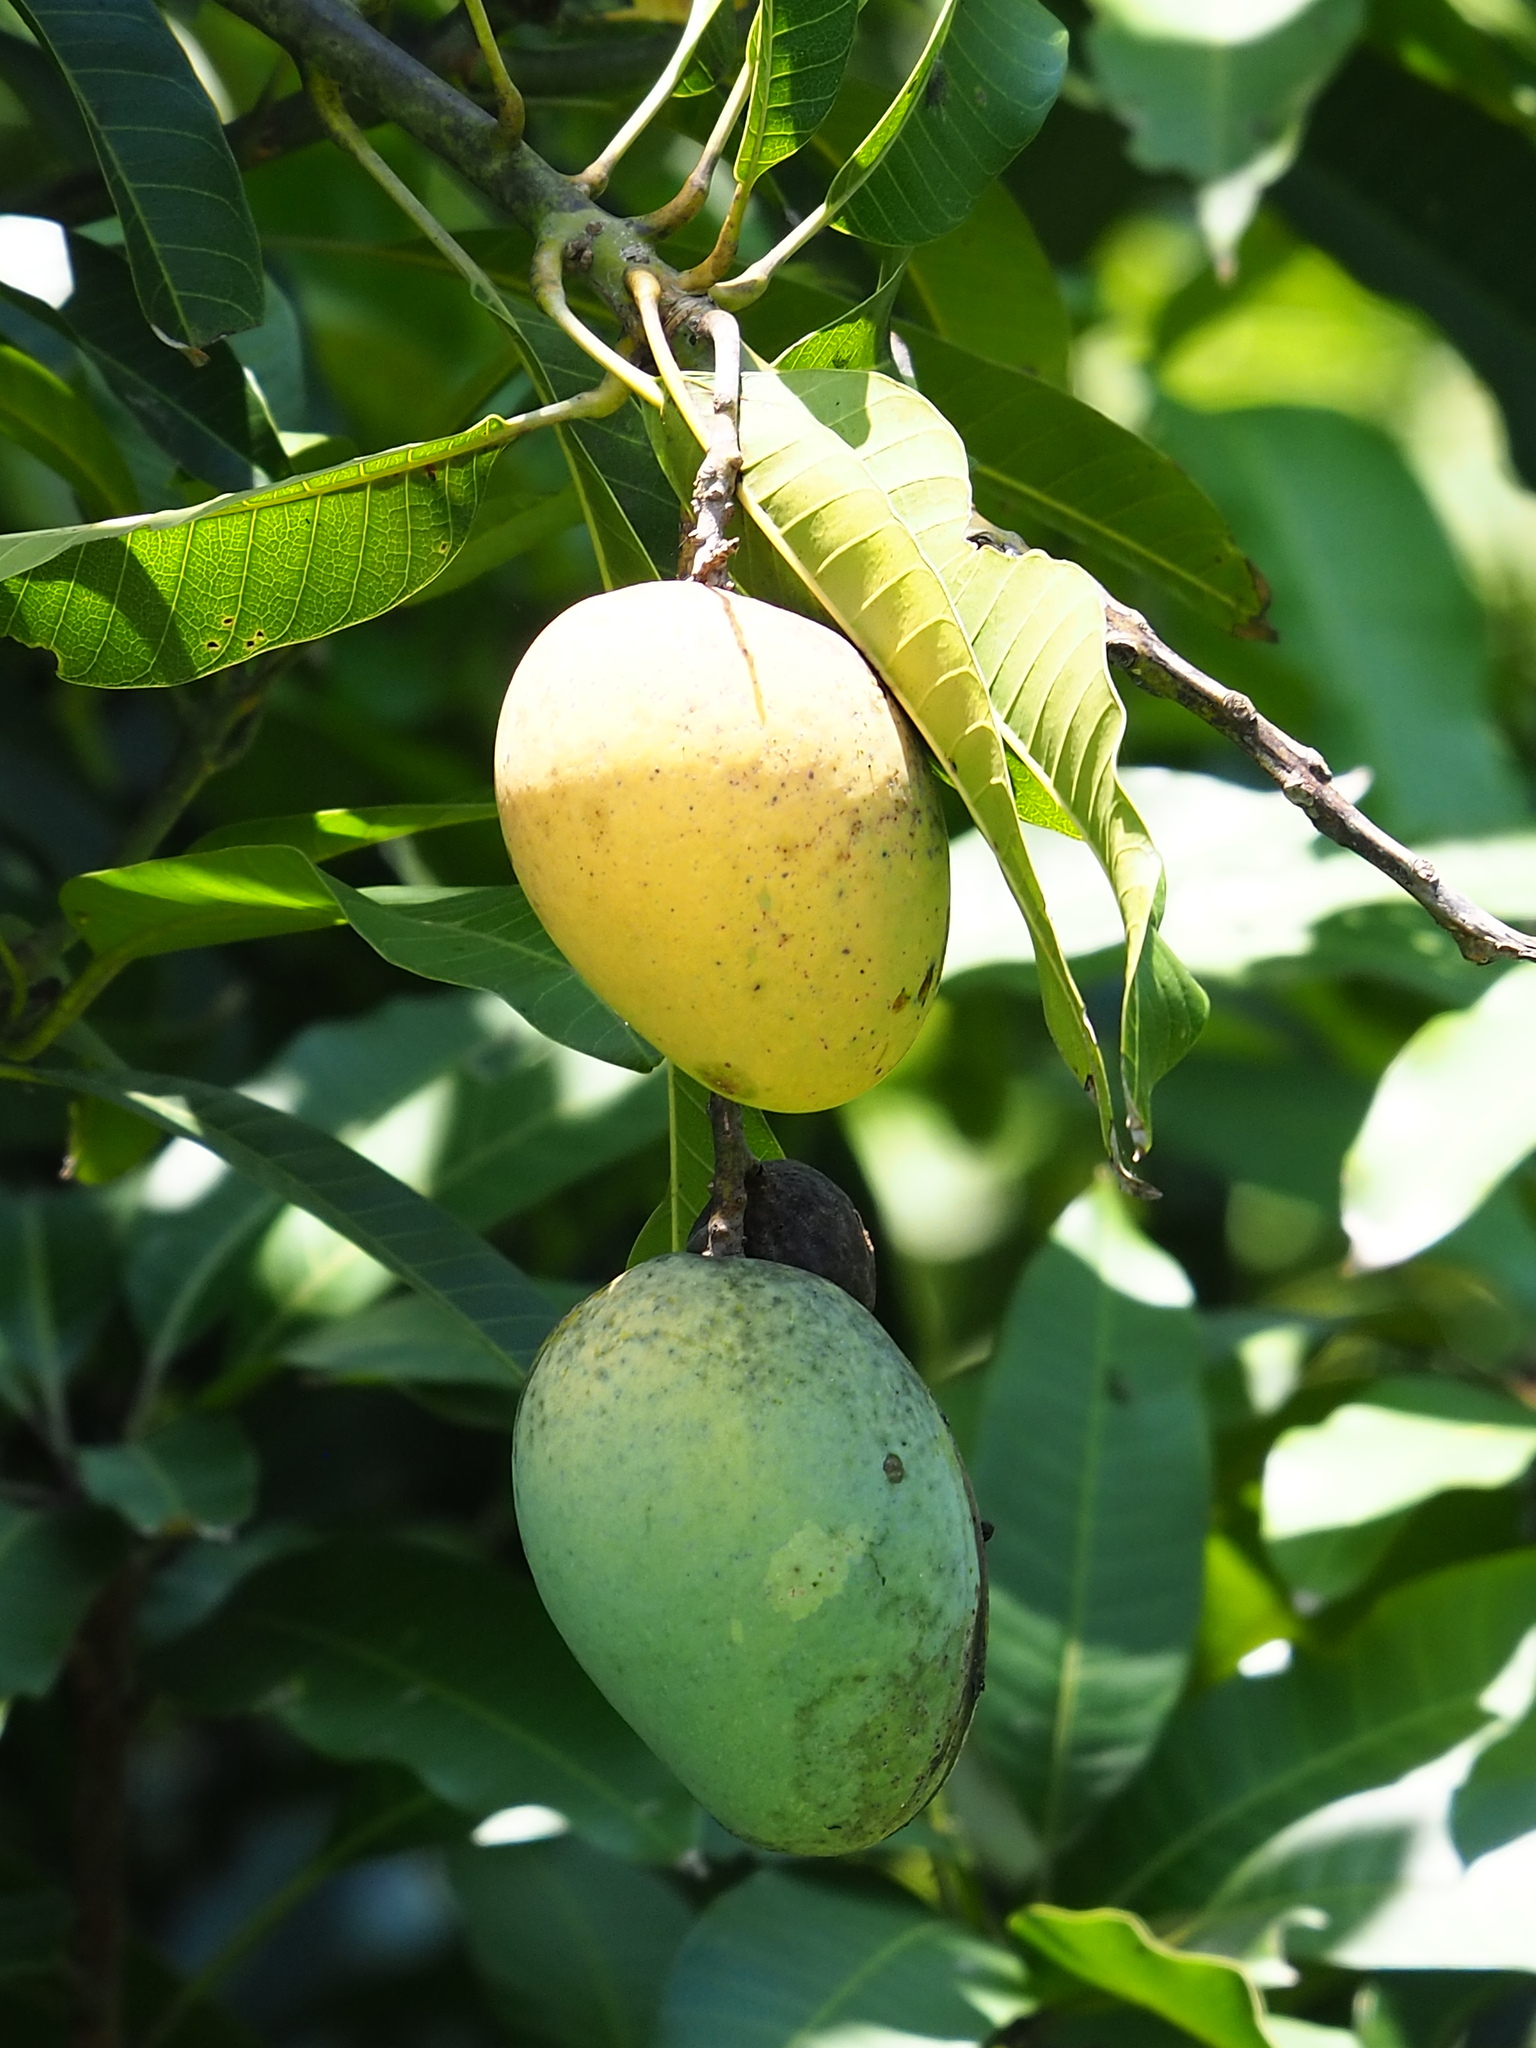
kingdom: Plantae
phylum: Tracheophyta
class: Magnoliopsida
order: Sapindales
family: Anacardiaceae
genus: Mangifera
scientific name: Mangifera indica
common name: Mango
